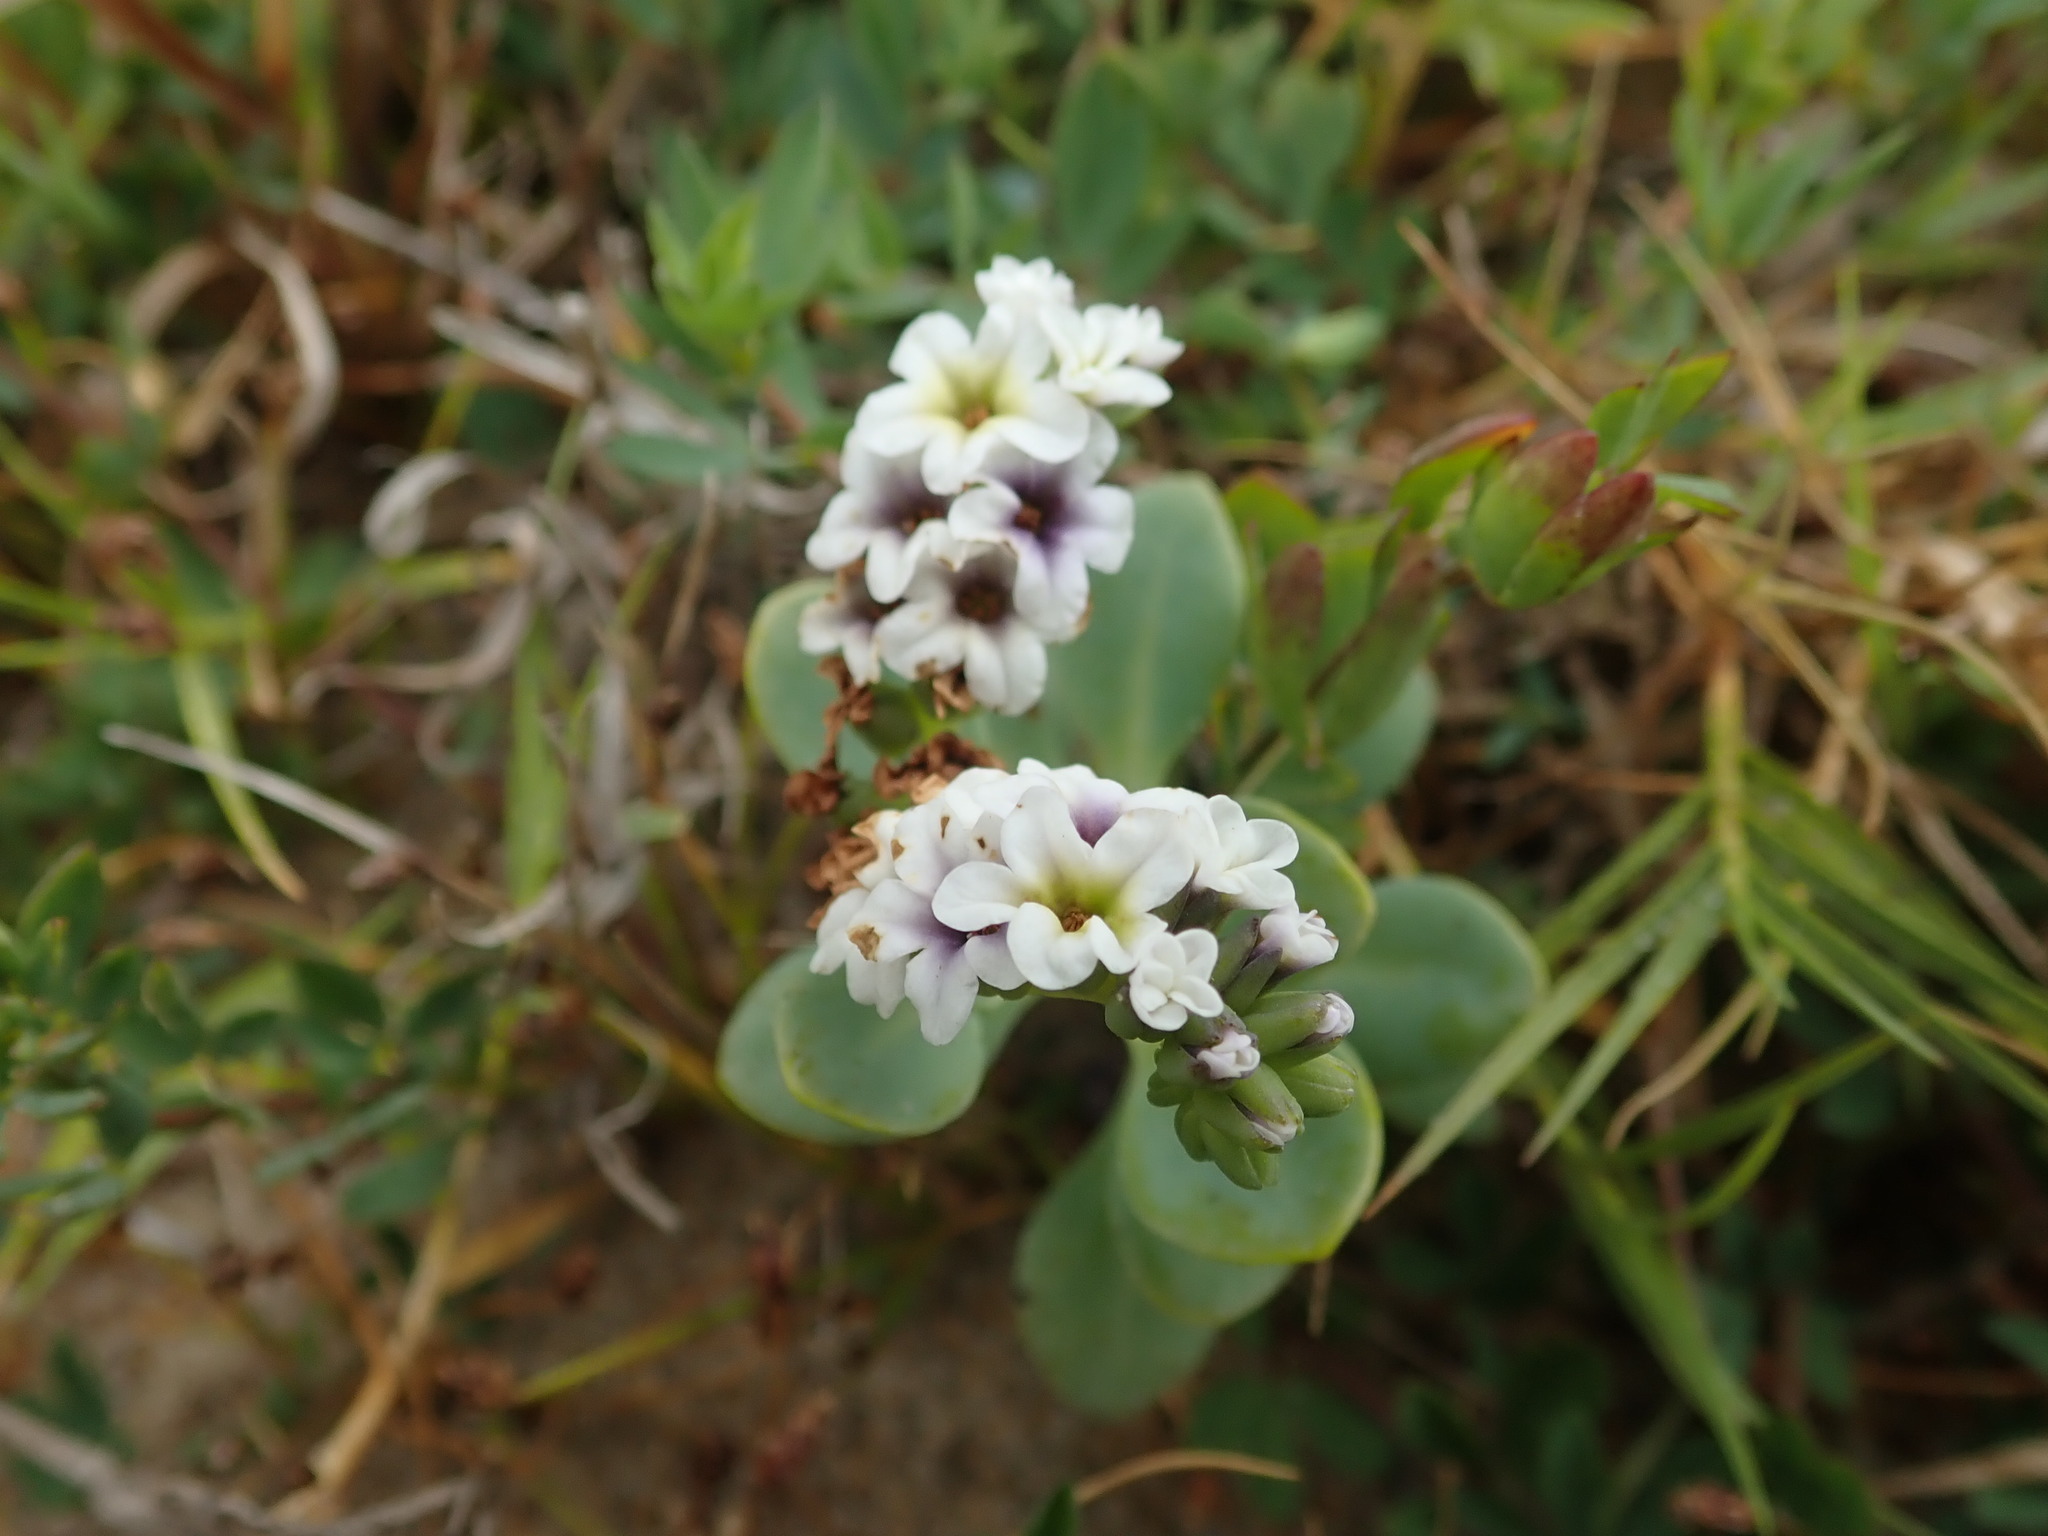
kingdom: Plantae
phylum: Tracheophyta
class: Magnoliopsida
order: Boraginales
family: Heliotropiaceae
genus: Heliotropium
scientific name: Heliotropium curassavicum
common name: Seaside heliotrope
